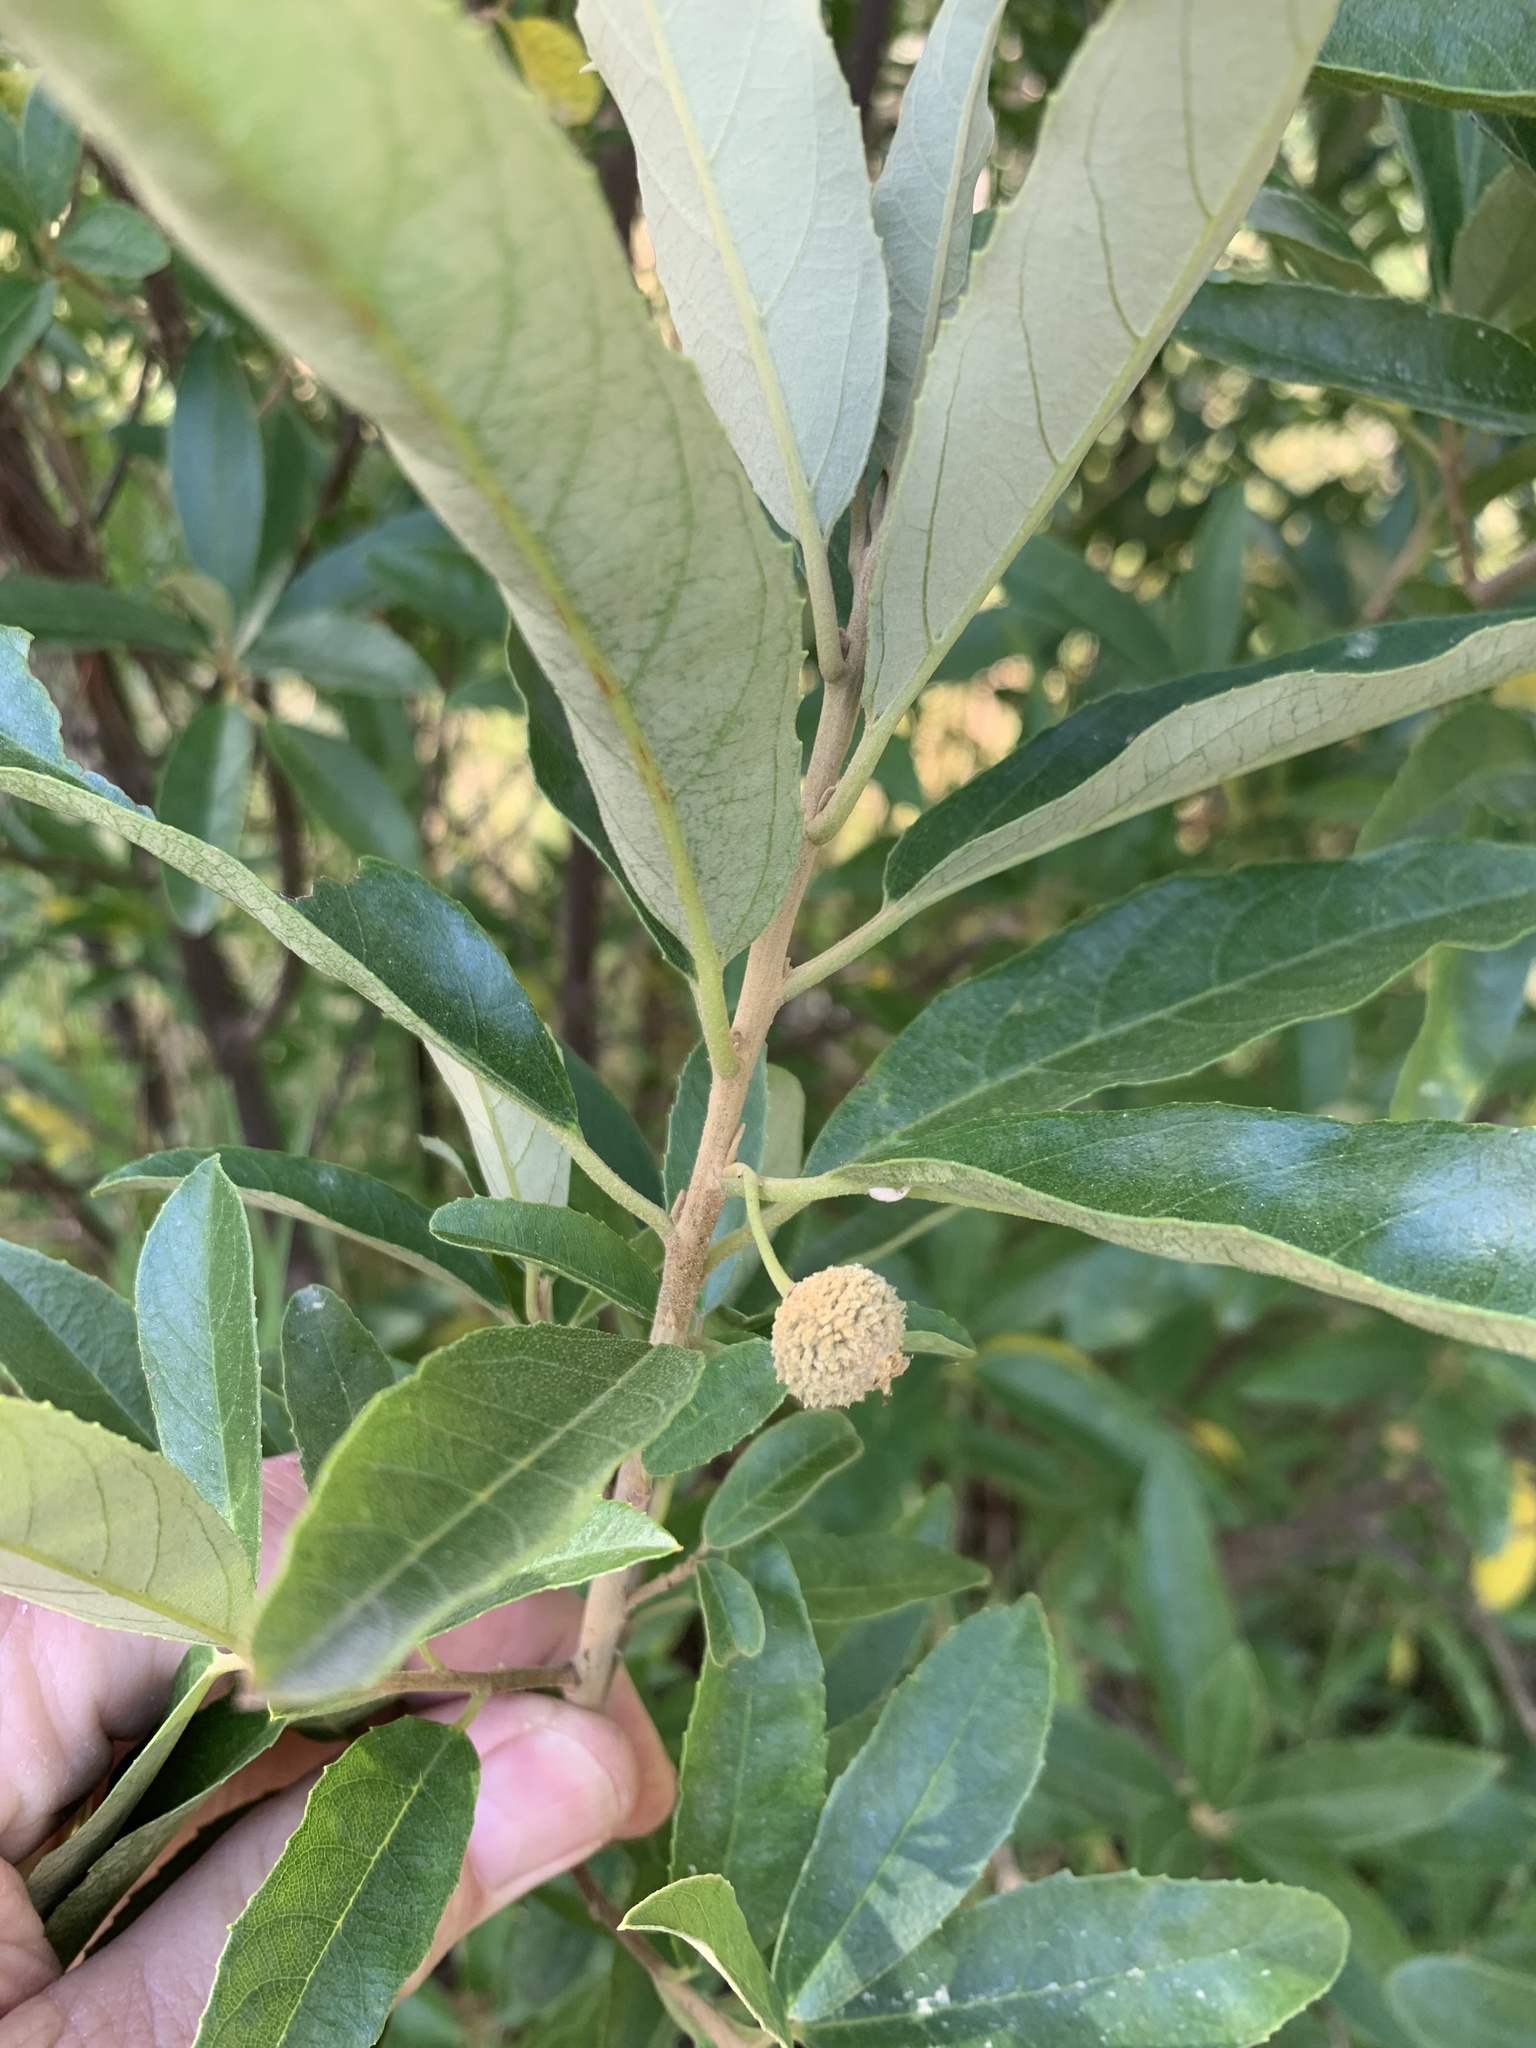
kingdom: Plantae
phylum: Tracheophyta
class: Magnoliopsida
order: Malpighiales
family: Achariaceae
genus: Kiggelaria
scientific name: Kiggelaria africana
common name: Wild peach
